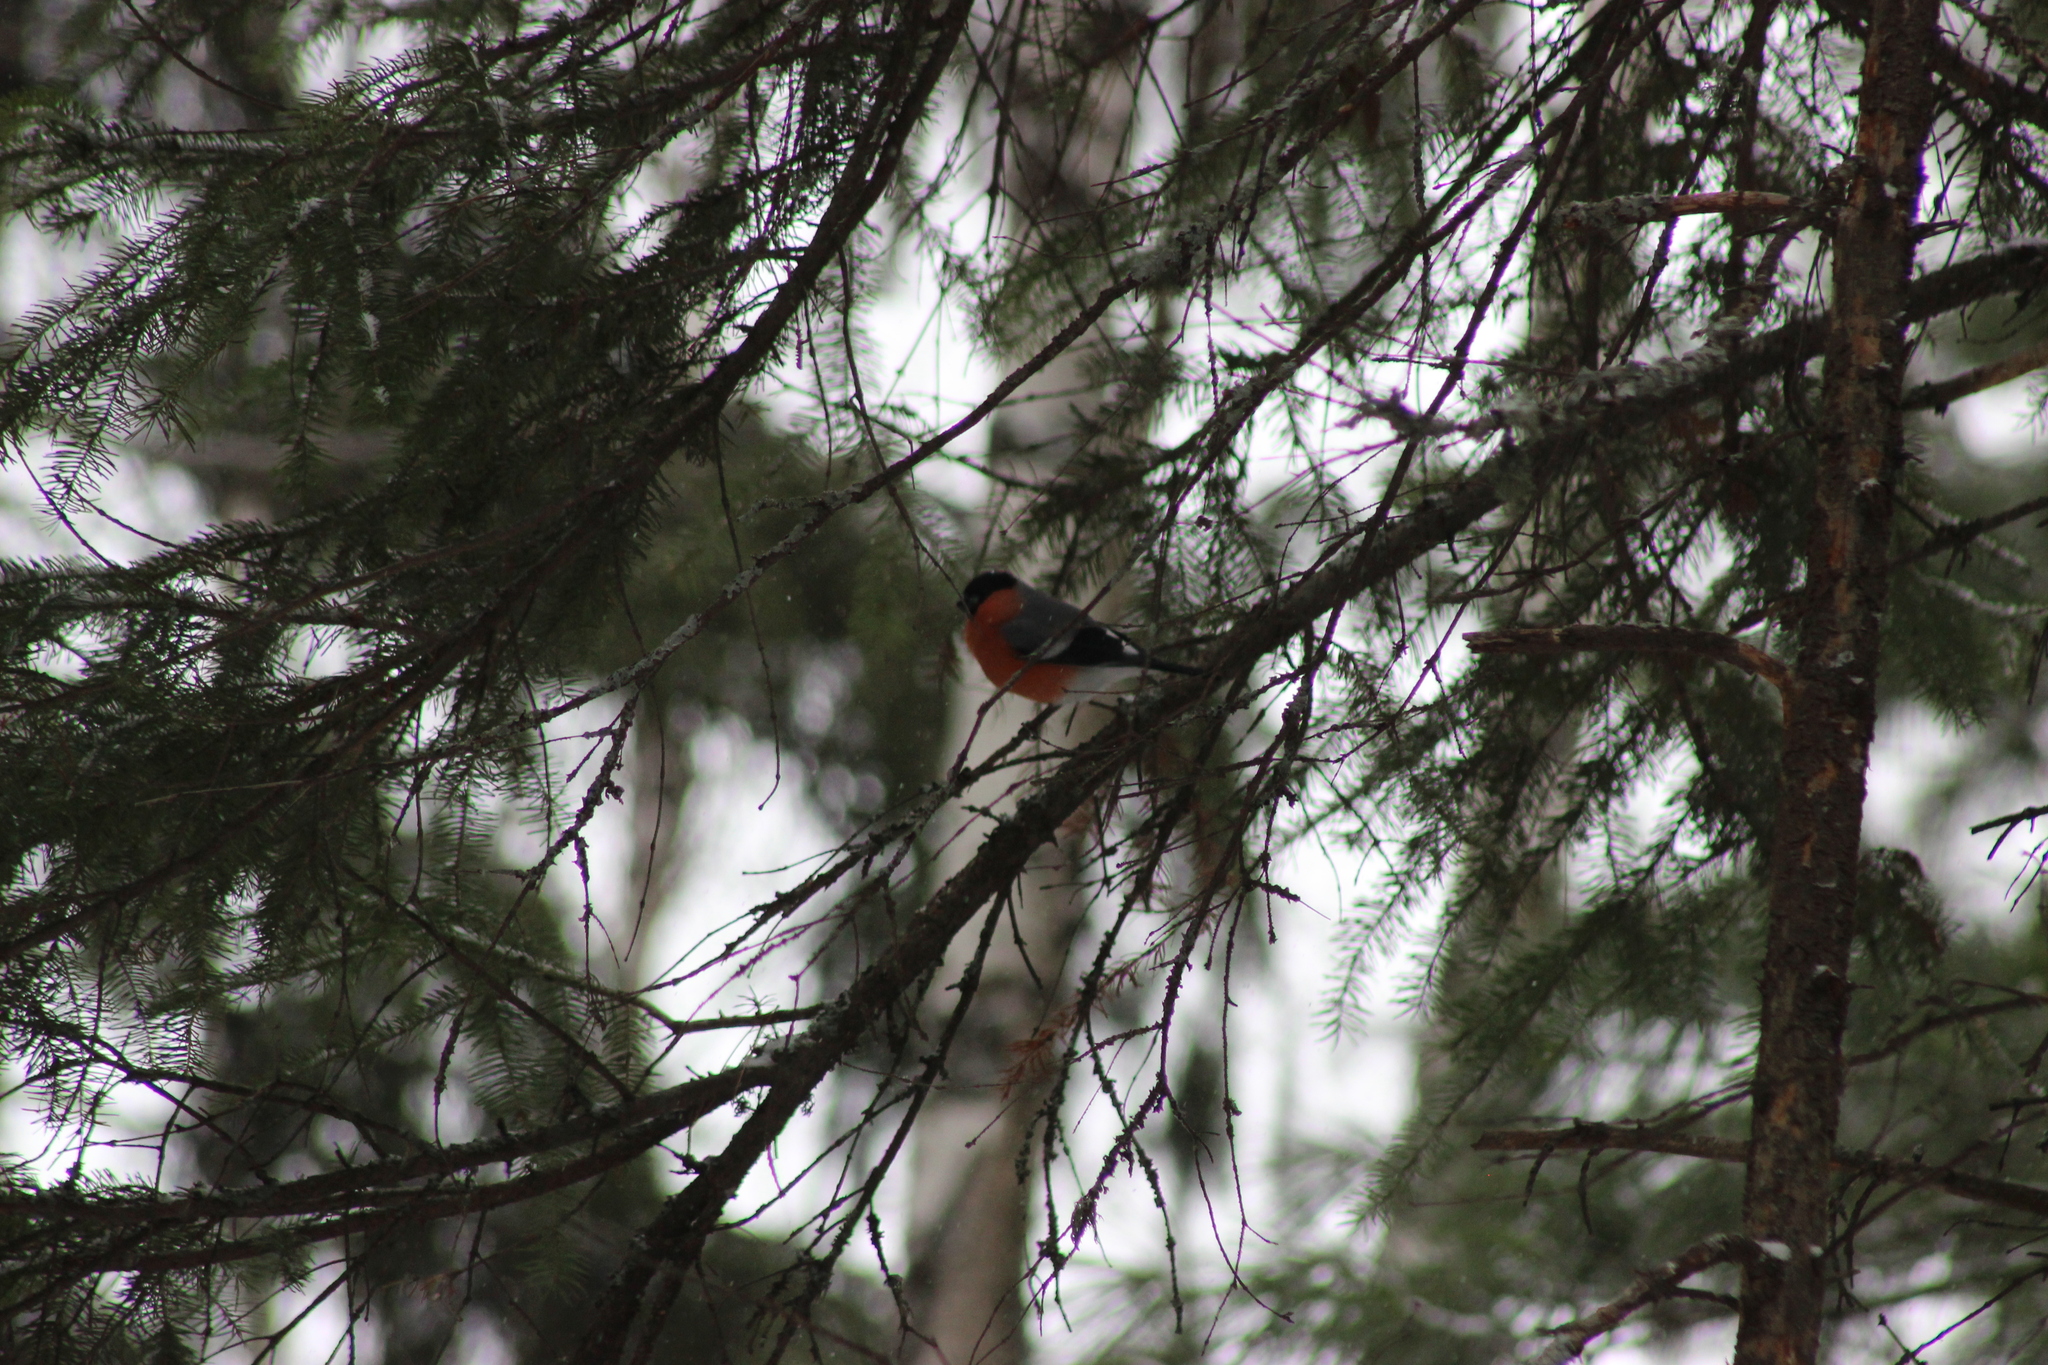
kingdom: Animalia
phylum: Chordata
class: Aves
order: Passeriformes
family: Fringillidae
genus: Pyrrhula
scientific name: Pyrrhula pyrrhula
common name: Eurasian bullfinch
